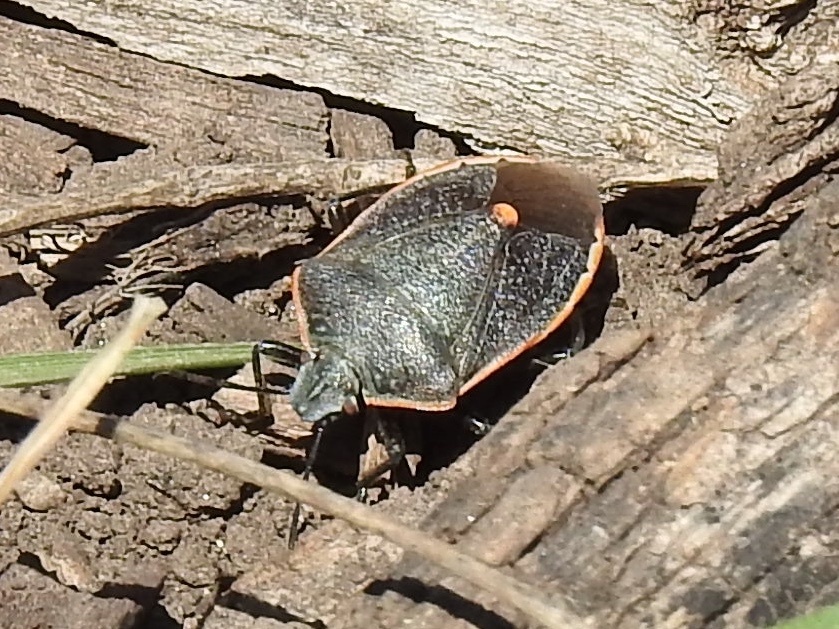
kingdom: Animalia
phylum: Arthropoda
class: Insecta
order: Hemiptera
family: Pentatomidae
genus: Chlorochroa
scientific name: Chlorochroa ligata
